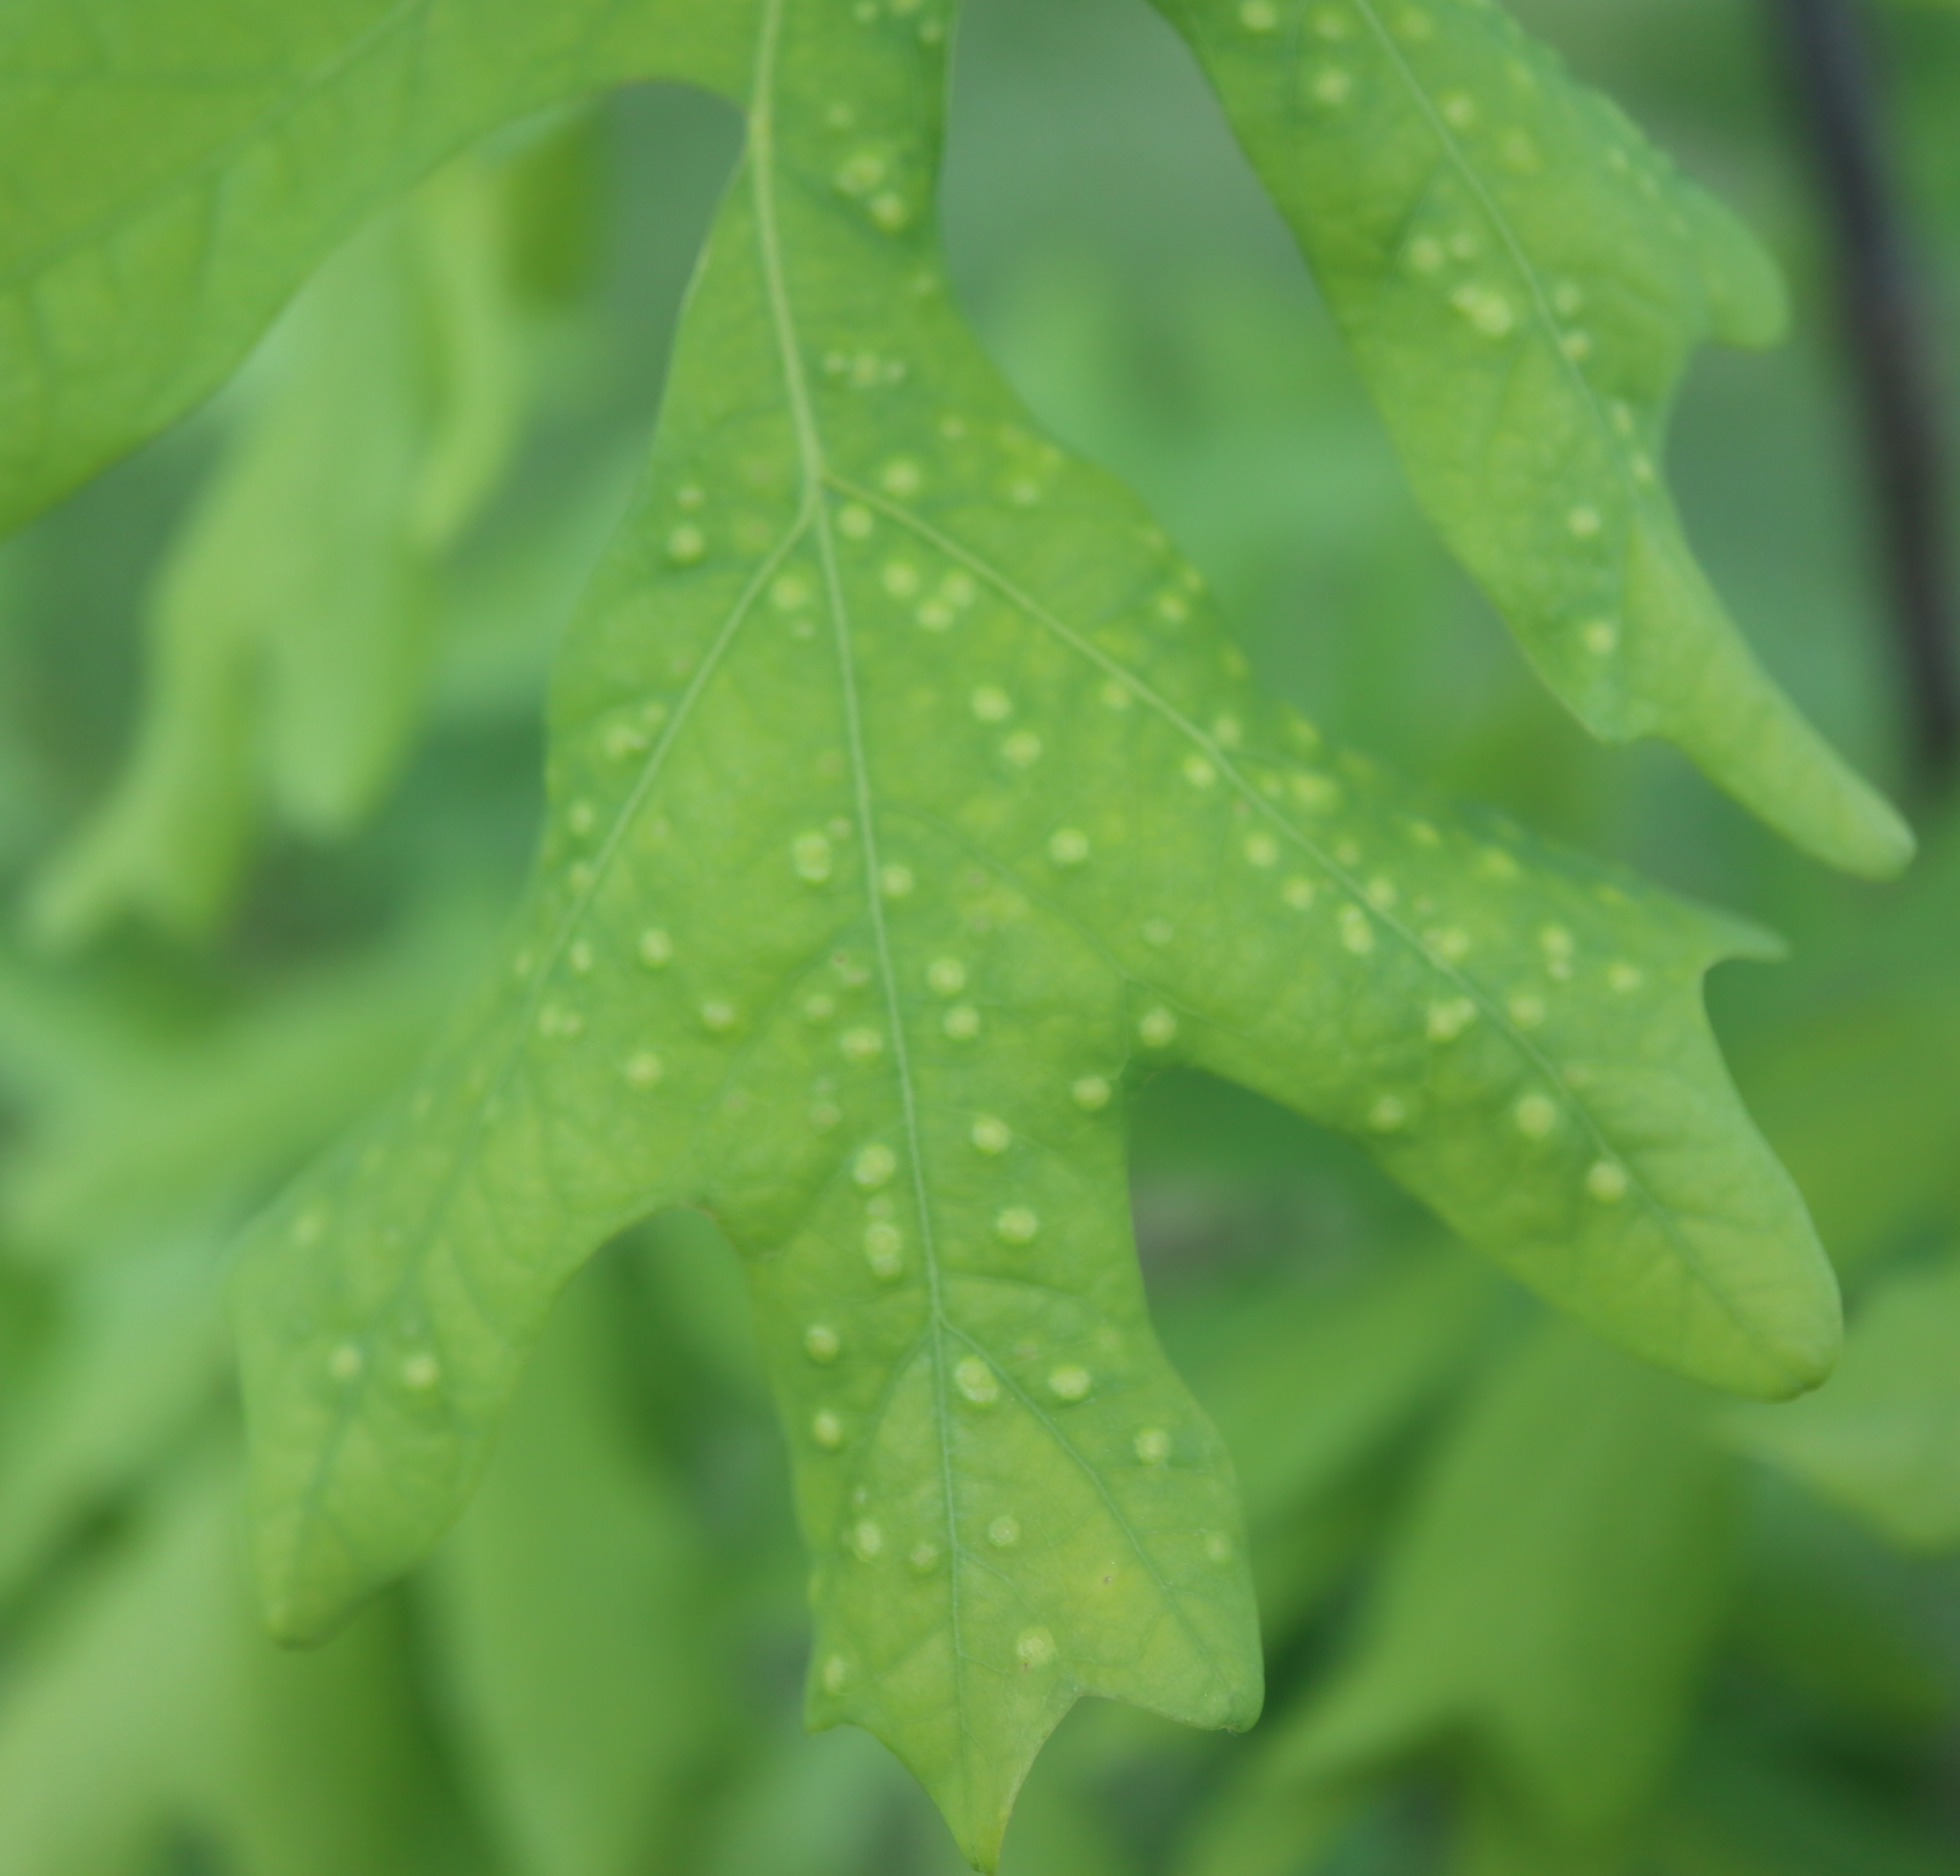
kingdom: Animalia
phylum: Arthropoda
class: Insecta
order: Hymenoptera
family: Cynipidae
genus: Neuroterus
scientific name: Neuroterus
